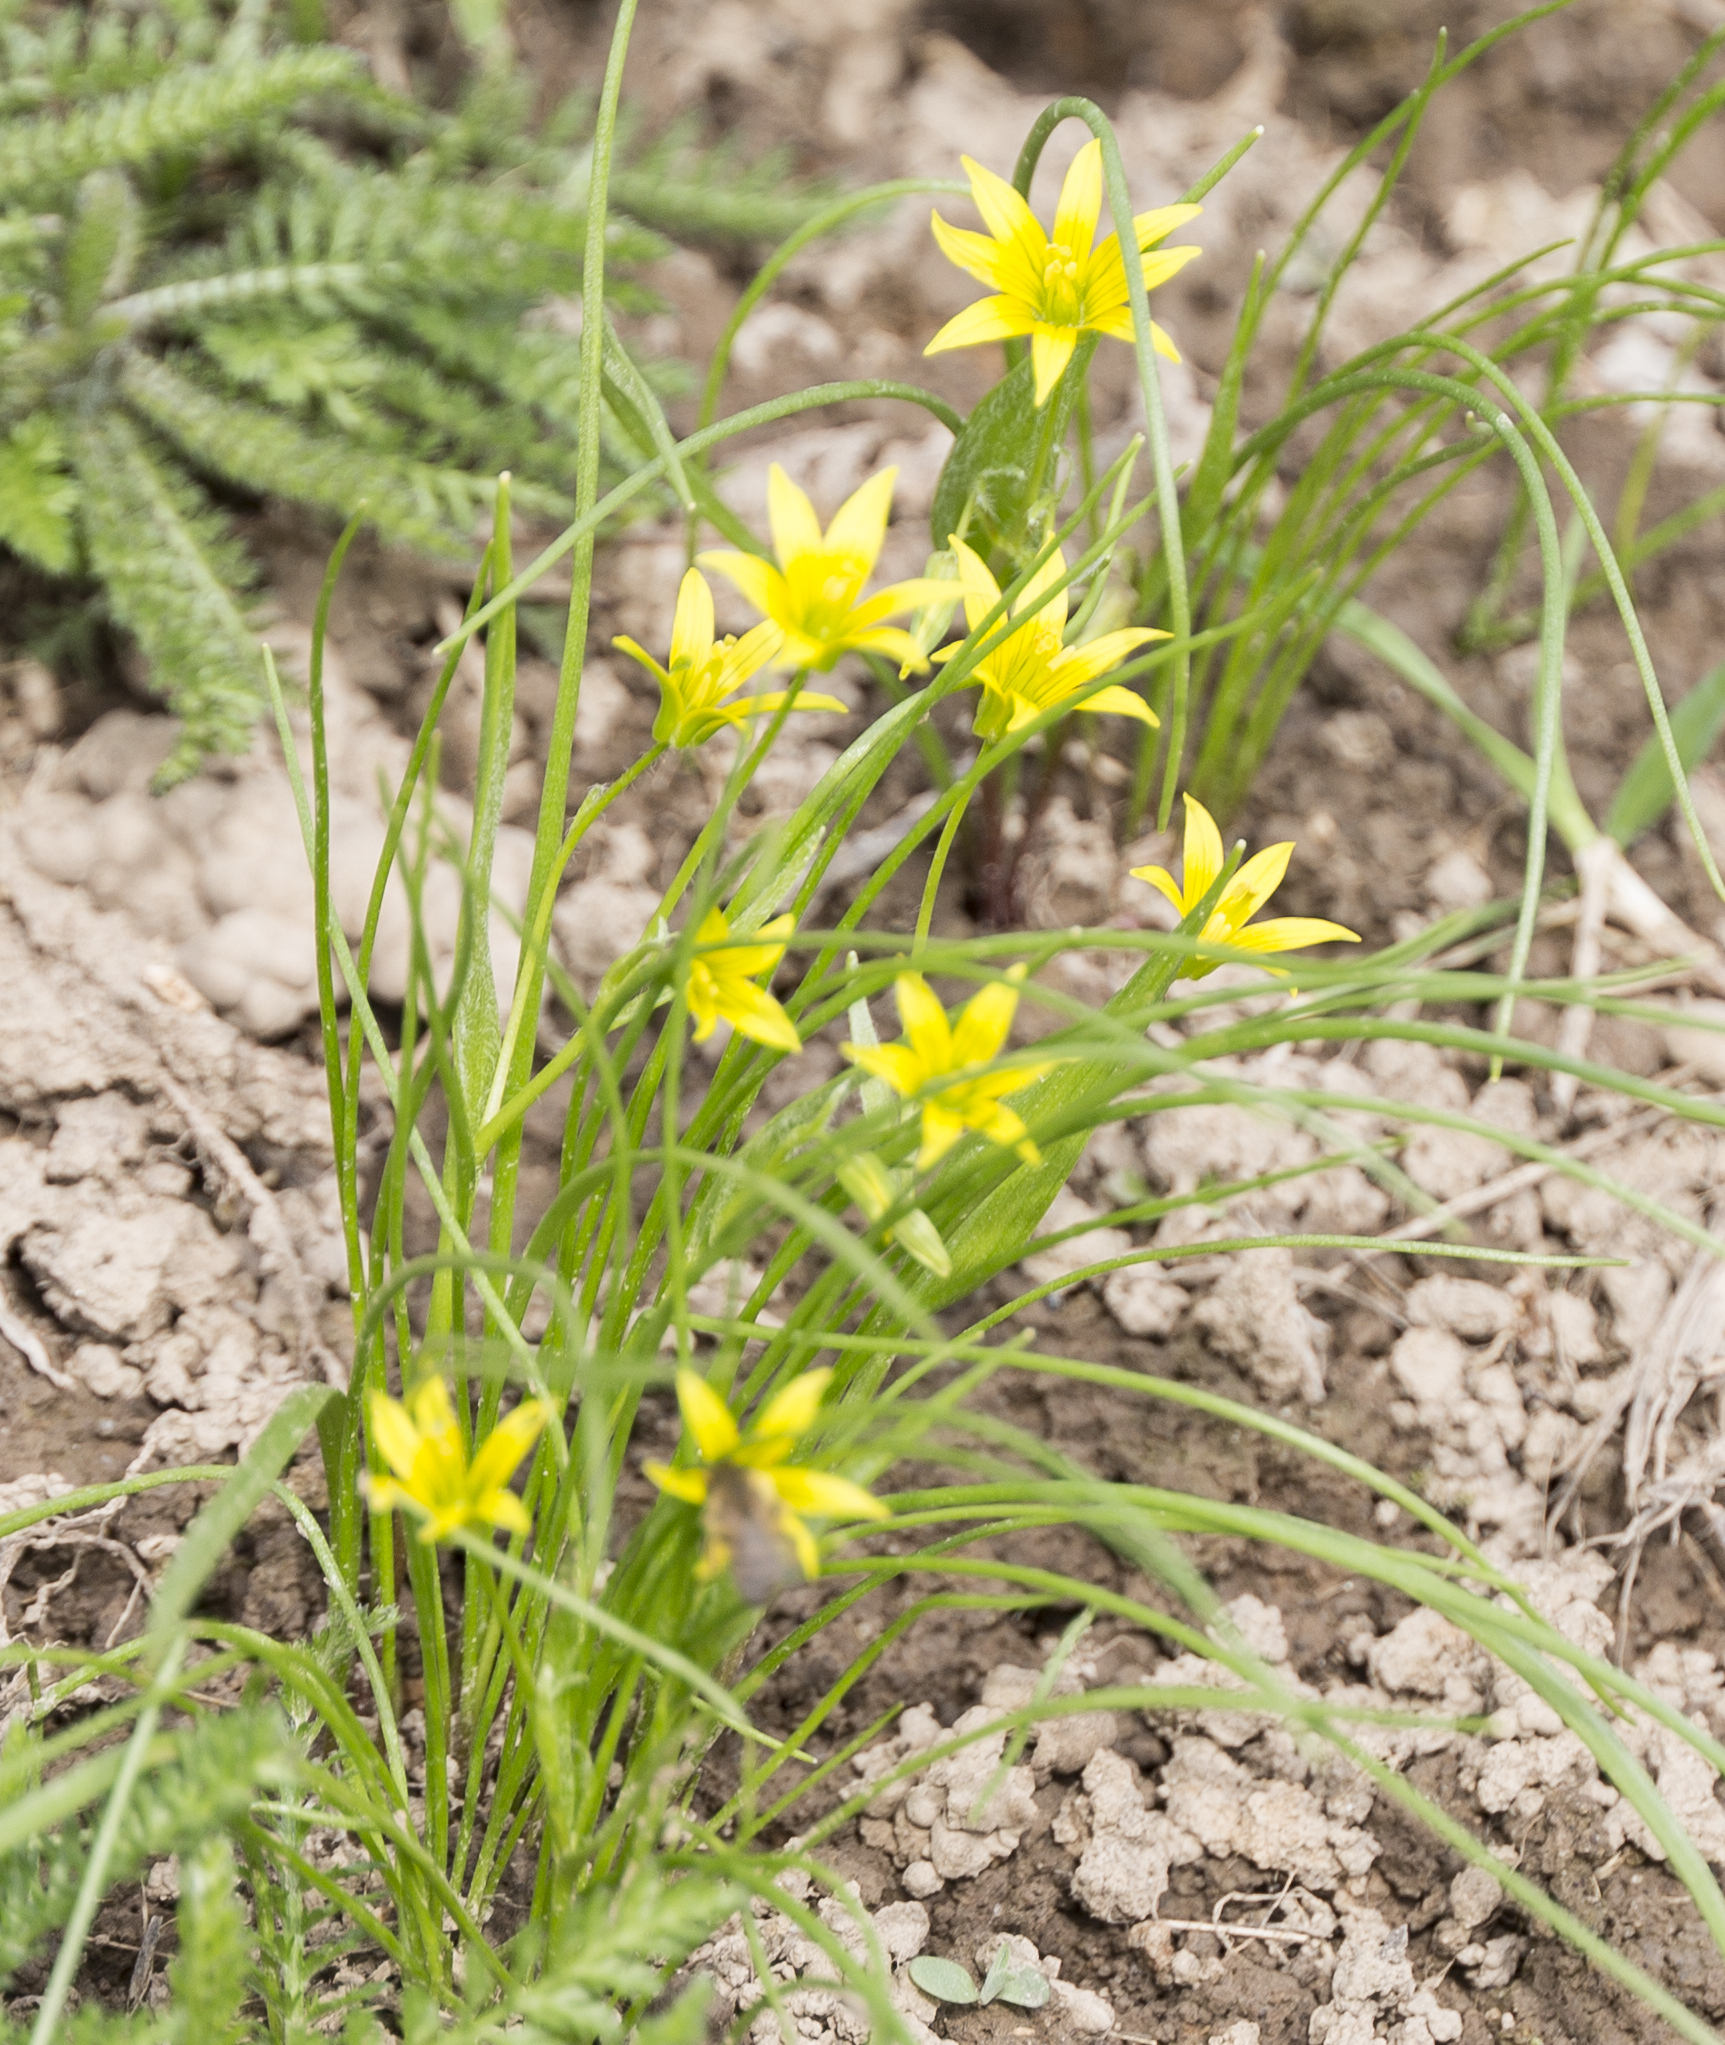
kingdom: Plantae
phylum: Tracheophyta
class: Liliopsida
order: Liliales
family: Liliaceae
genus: Gagea
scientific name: Gagea minima
